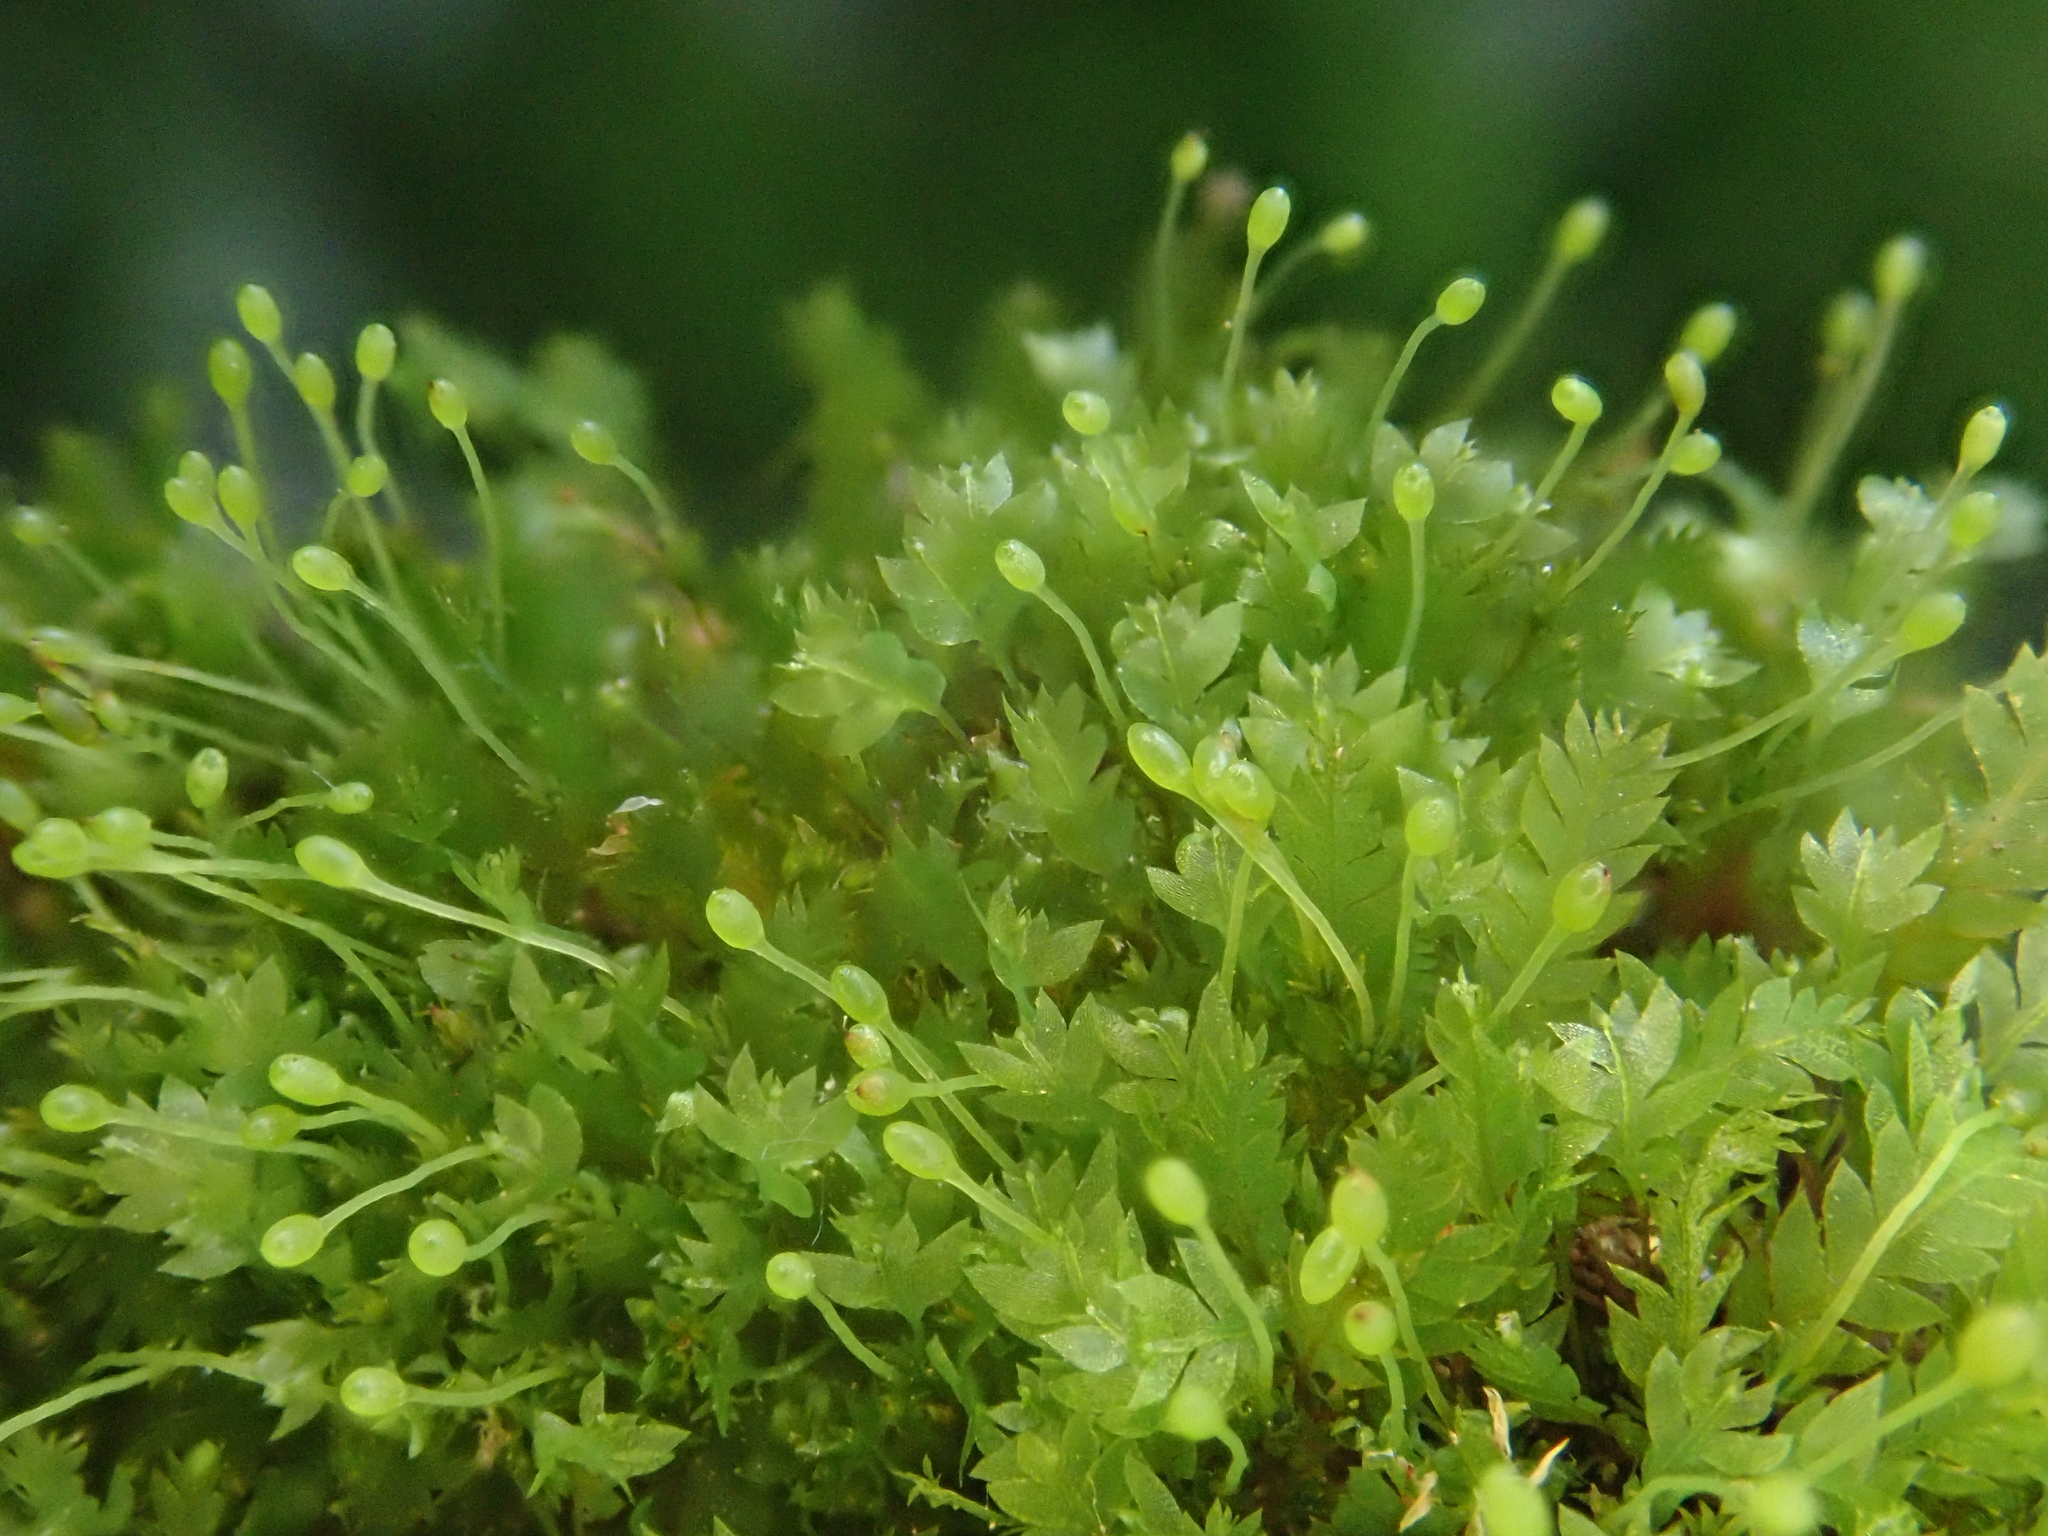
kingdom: Plantae
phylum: Bryophyta
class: Bryopsida
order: Dicranales
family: Schistostegaceae
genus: Schistostega
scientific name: Schistostega pennata
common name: Luminous moss
